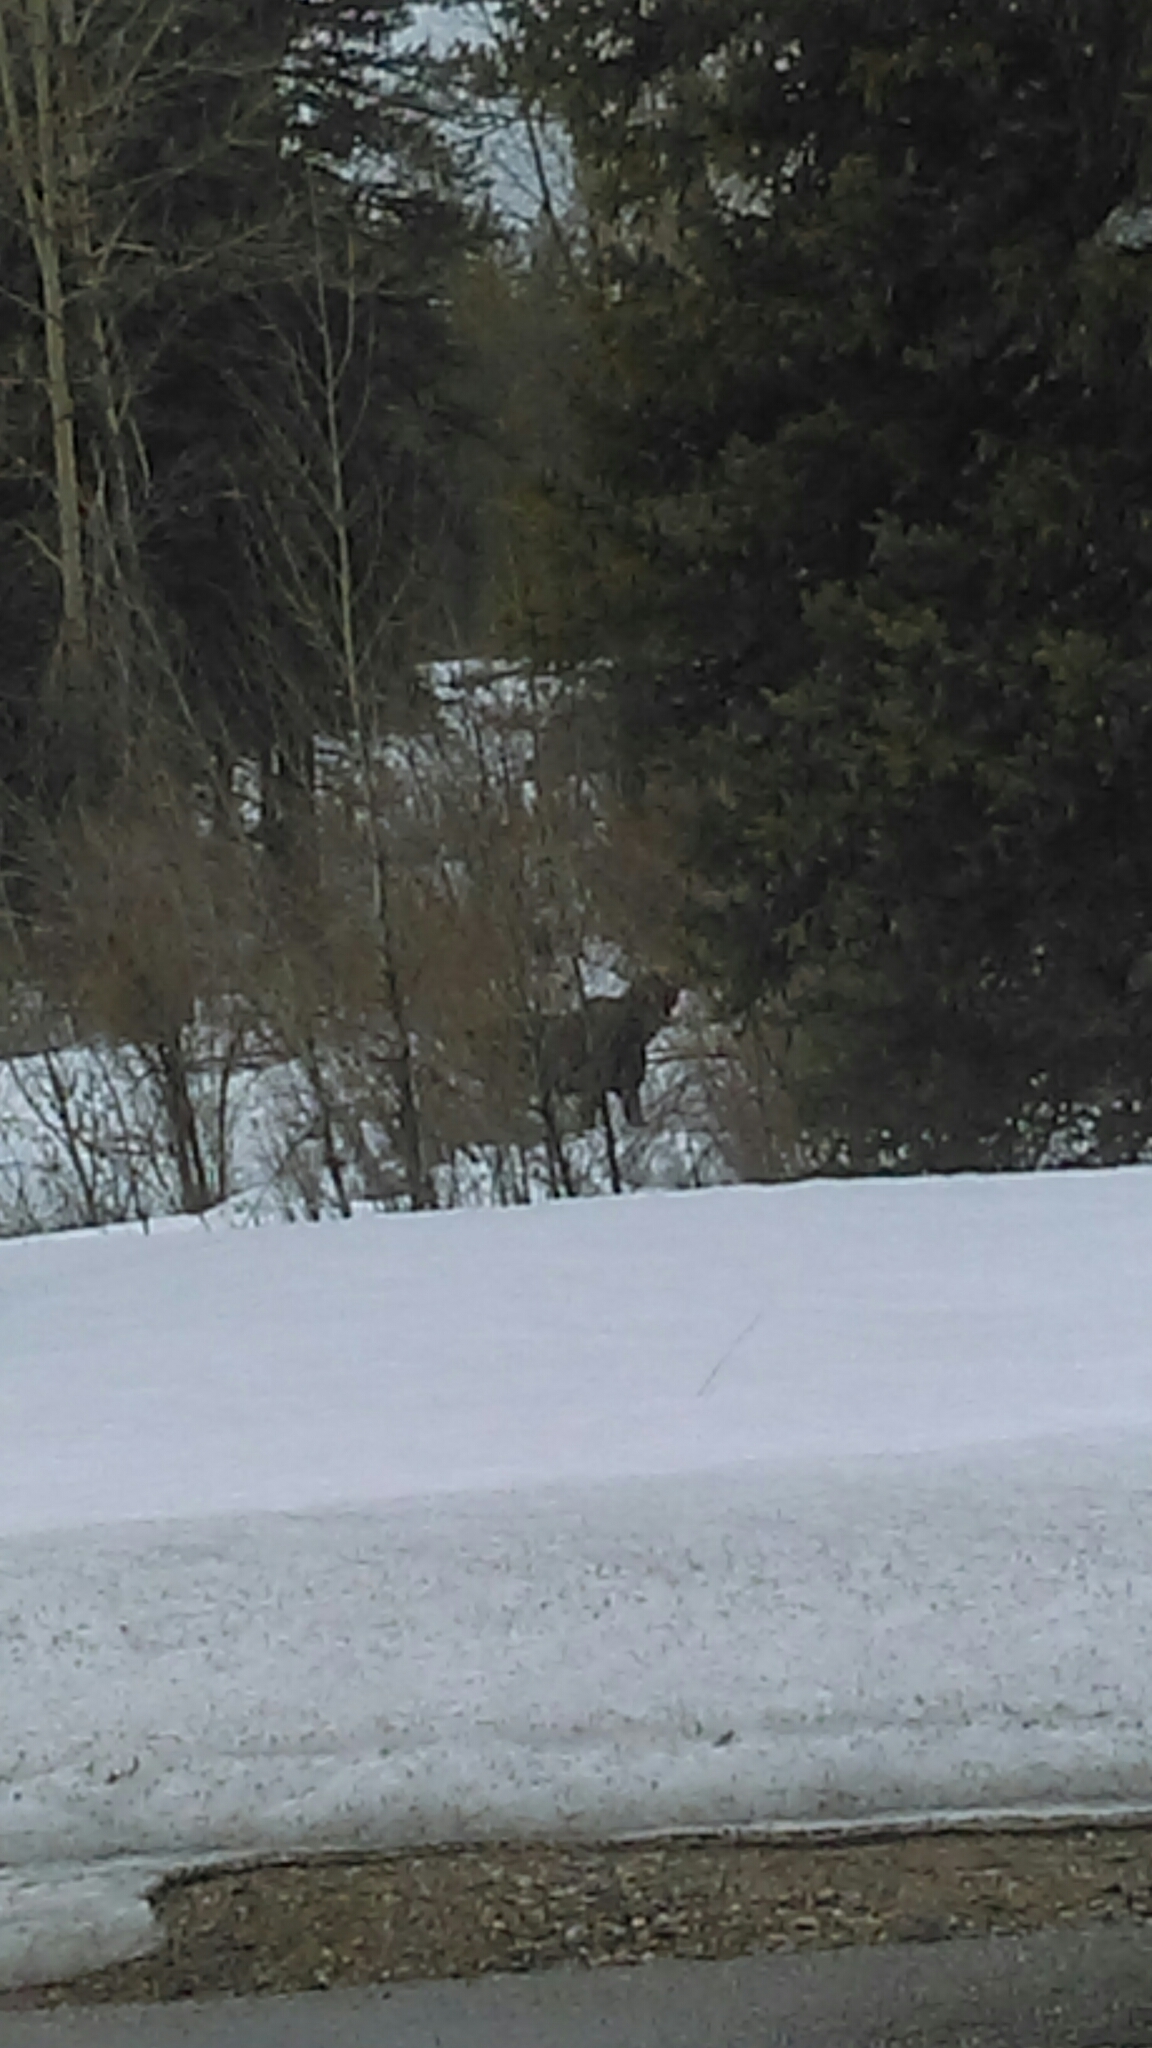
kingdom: Animalia
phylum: Chordata
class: Mammalia
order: Artiodactyla
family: Cervidae
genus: Alces
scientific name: Alces alces
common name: Moose
